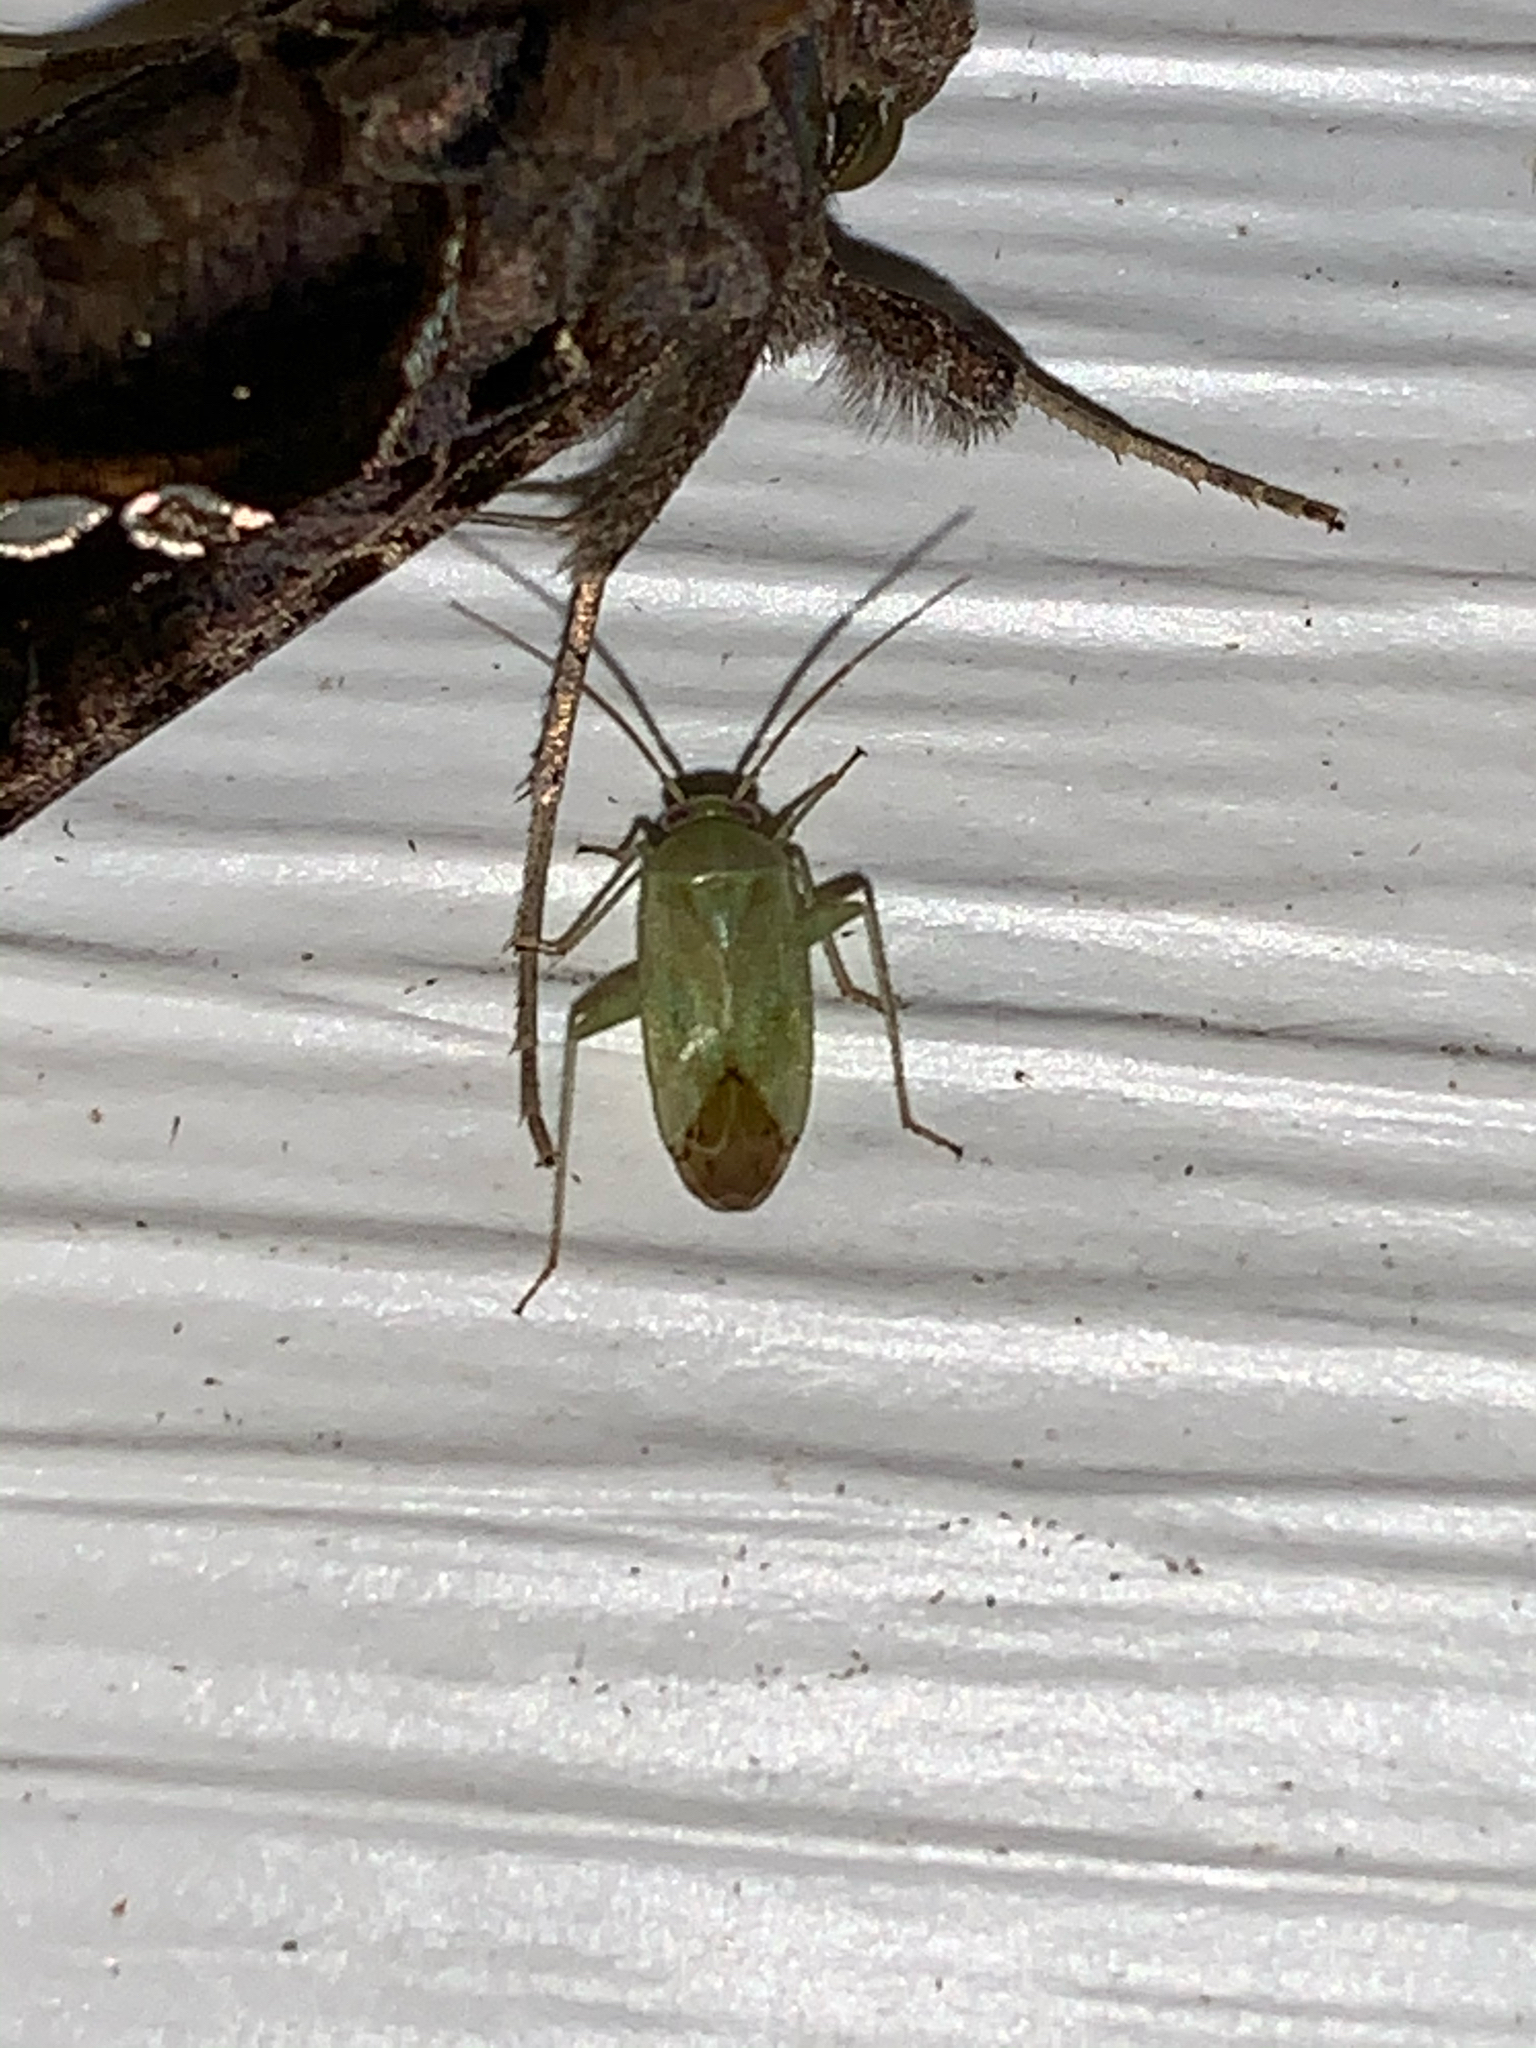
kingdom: Animalia
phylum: Arthropoda
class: Insecta
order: Hemiptera
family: Miridae
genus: Taylorilygus
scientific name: Taylorilygus apicalis
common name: Plant bug
